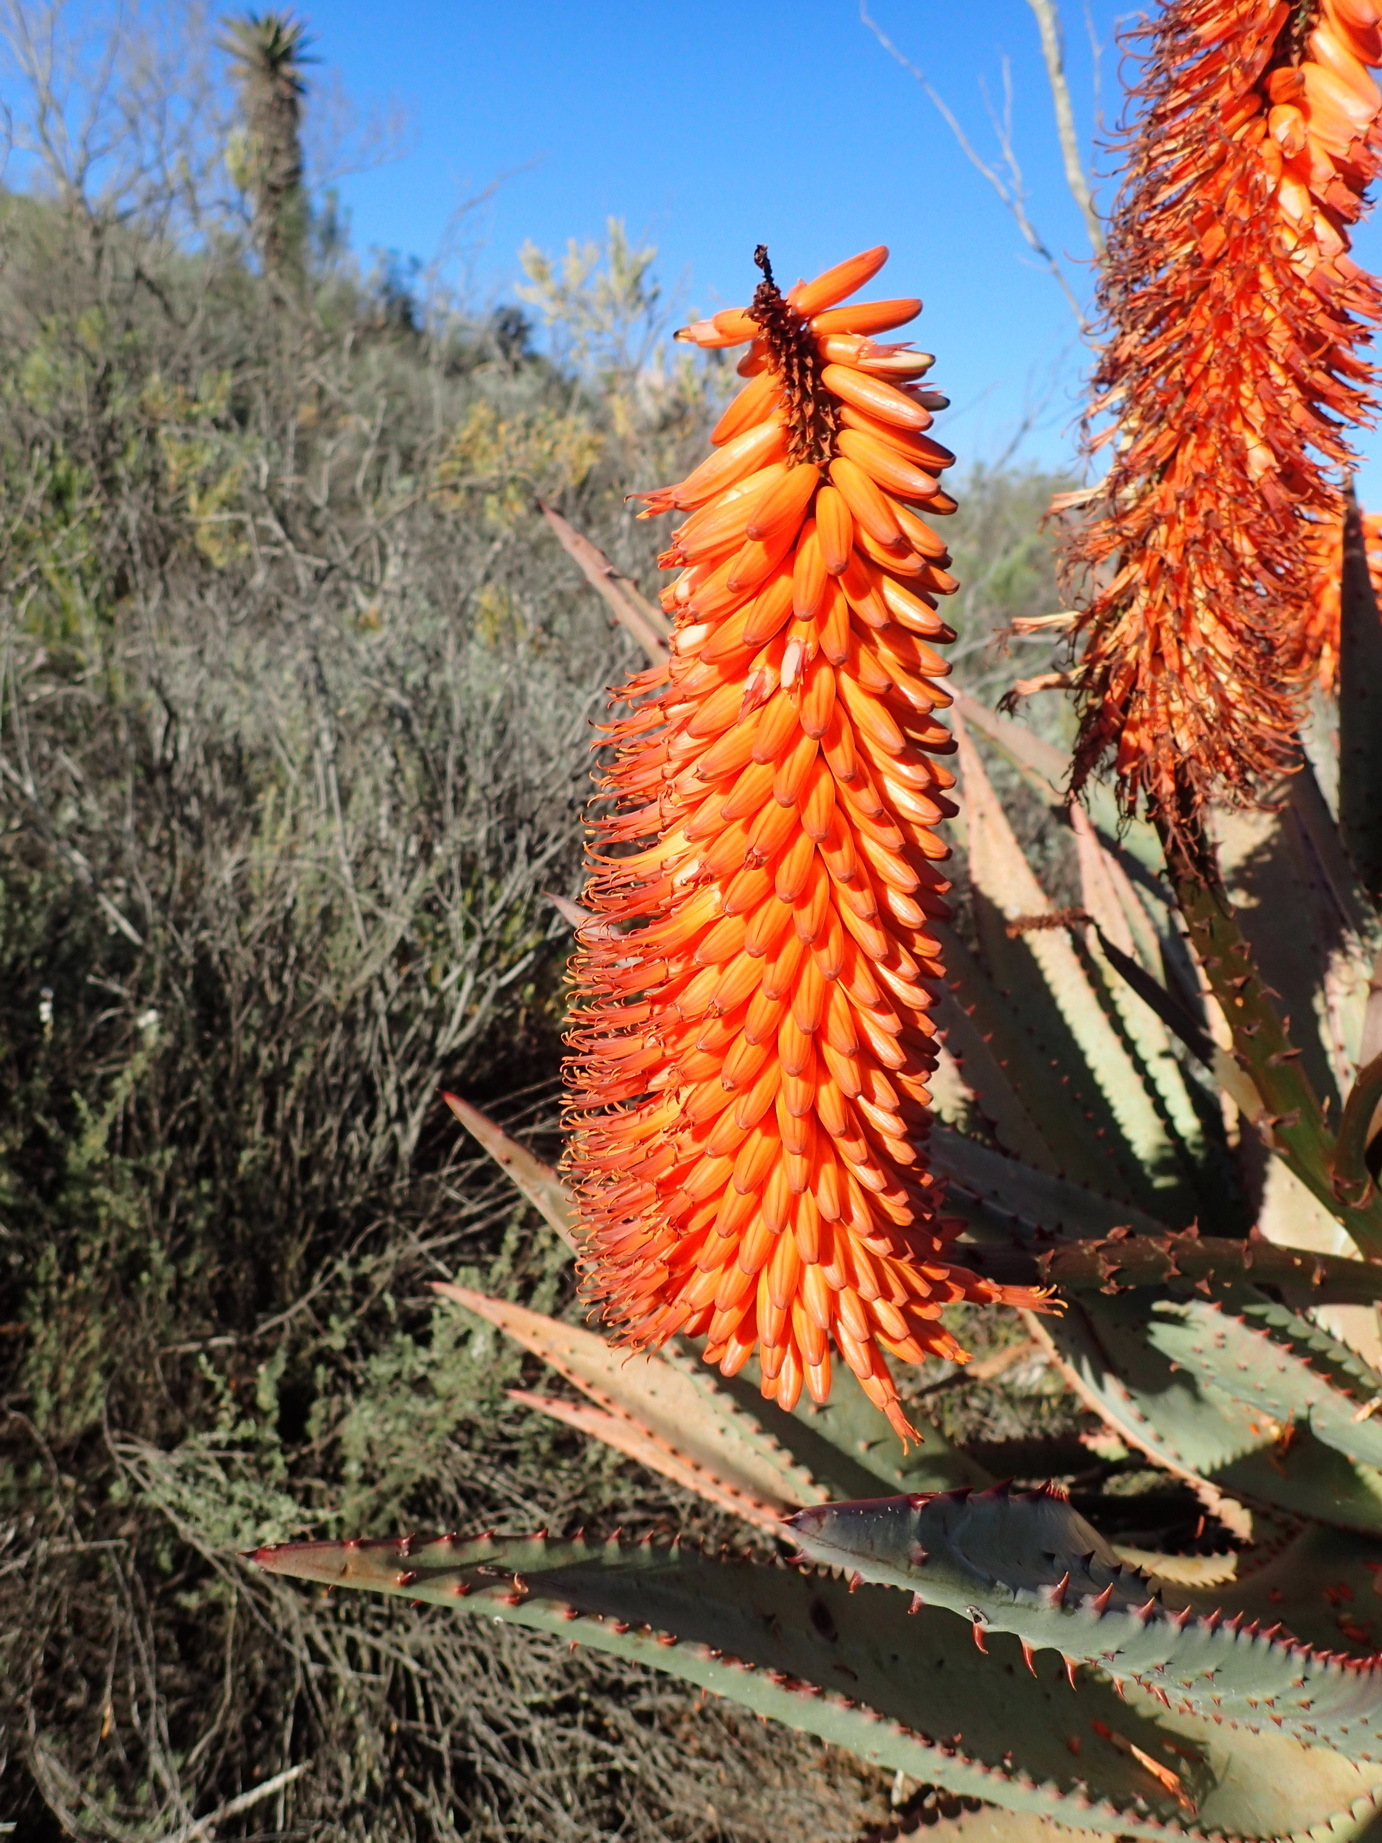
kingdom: Plantae
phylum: Tracheophyta
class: Liliopsida
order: Asparagales
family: Asphodelaceae
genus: Aloe
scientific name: Aloe ferox
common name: Bitter aloe
